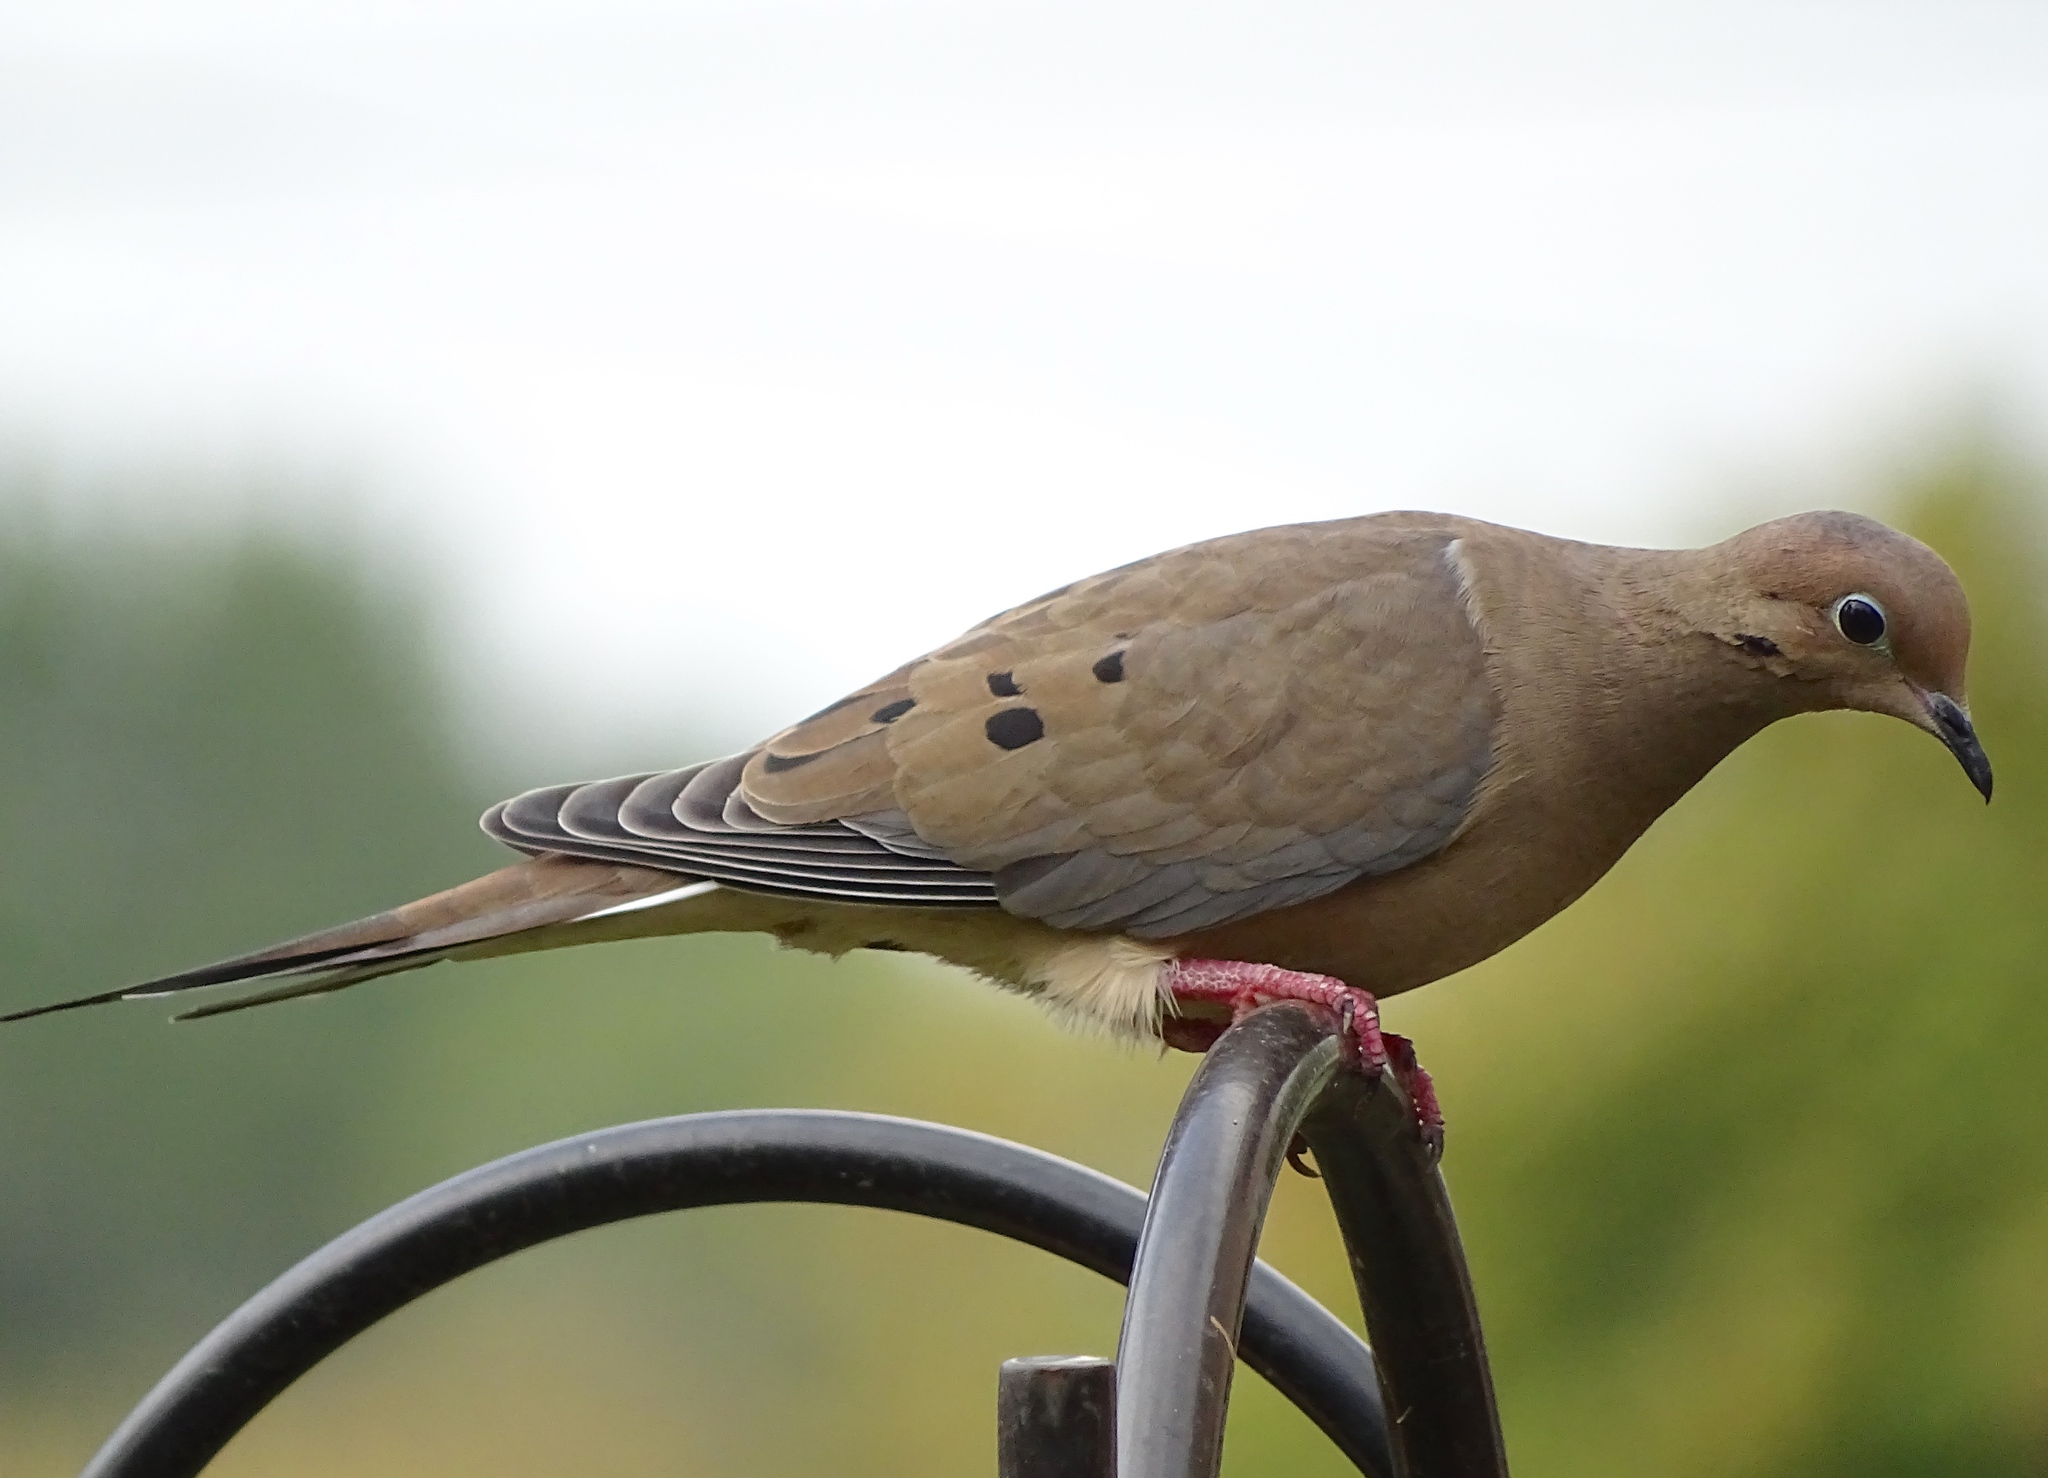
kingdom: Animalia
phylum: Chordata
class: Aves
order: Columbiformes
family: Columbidae
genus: Zenaida
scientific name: Zenaida macroura
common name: Mourning dove
